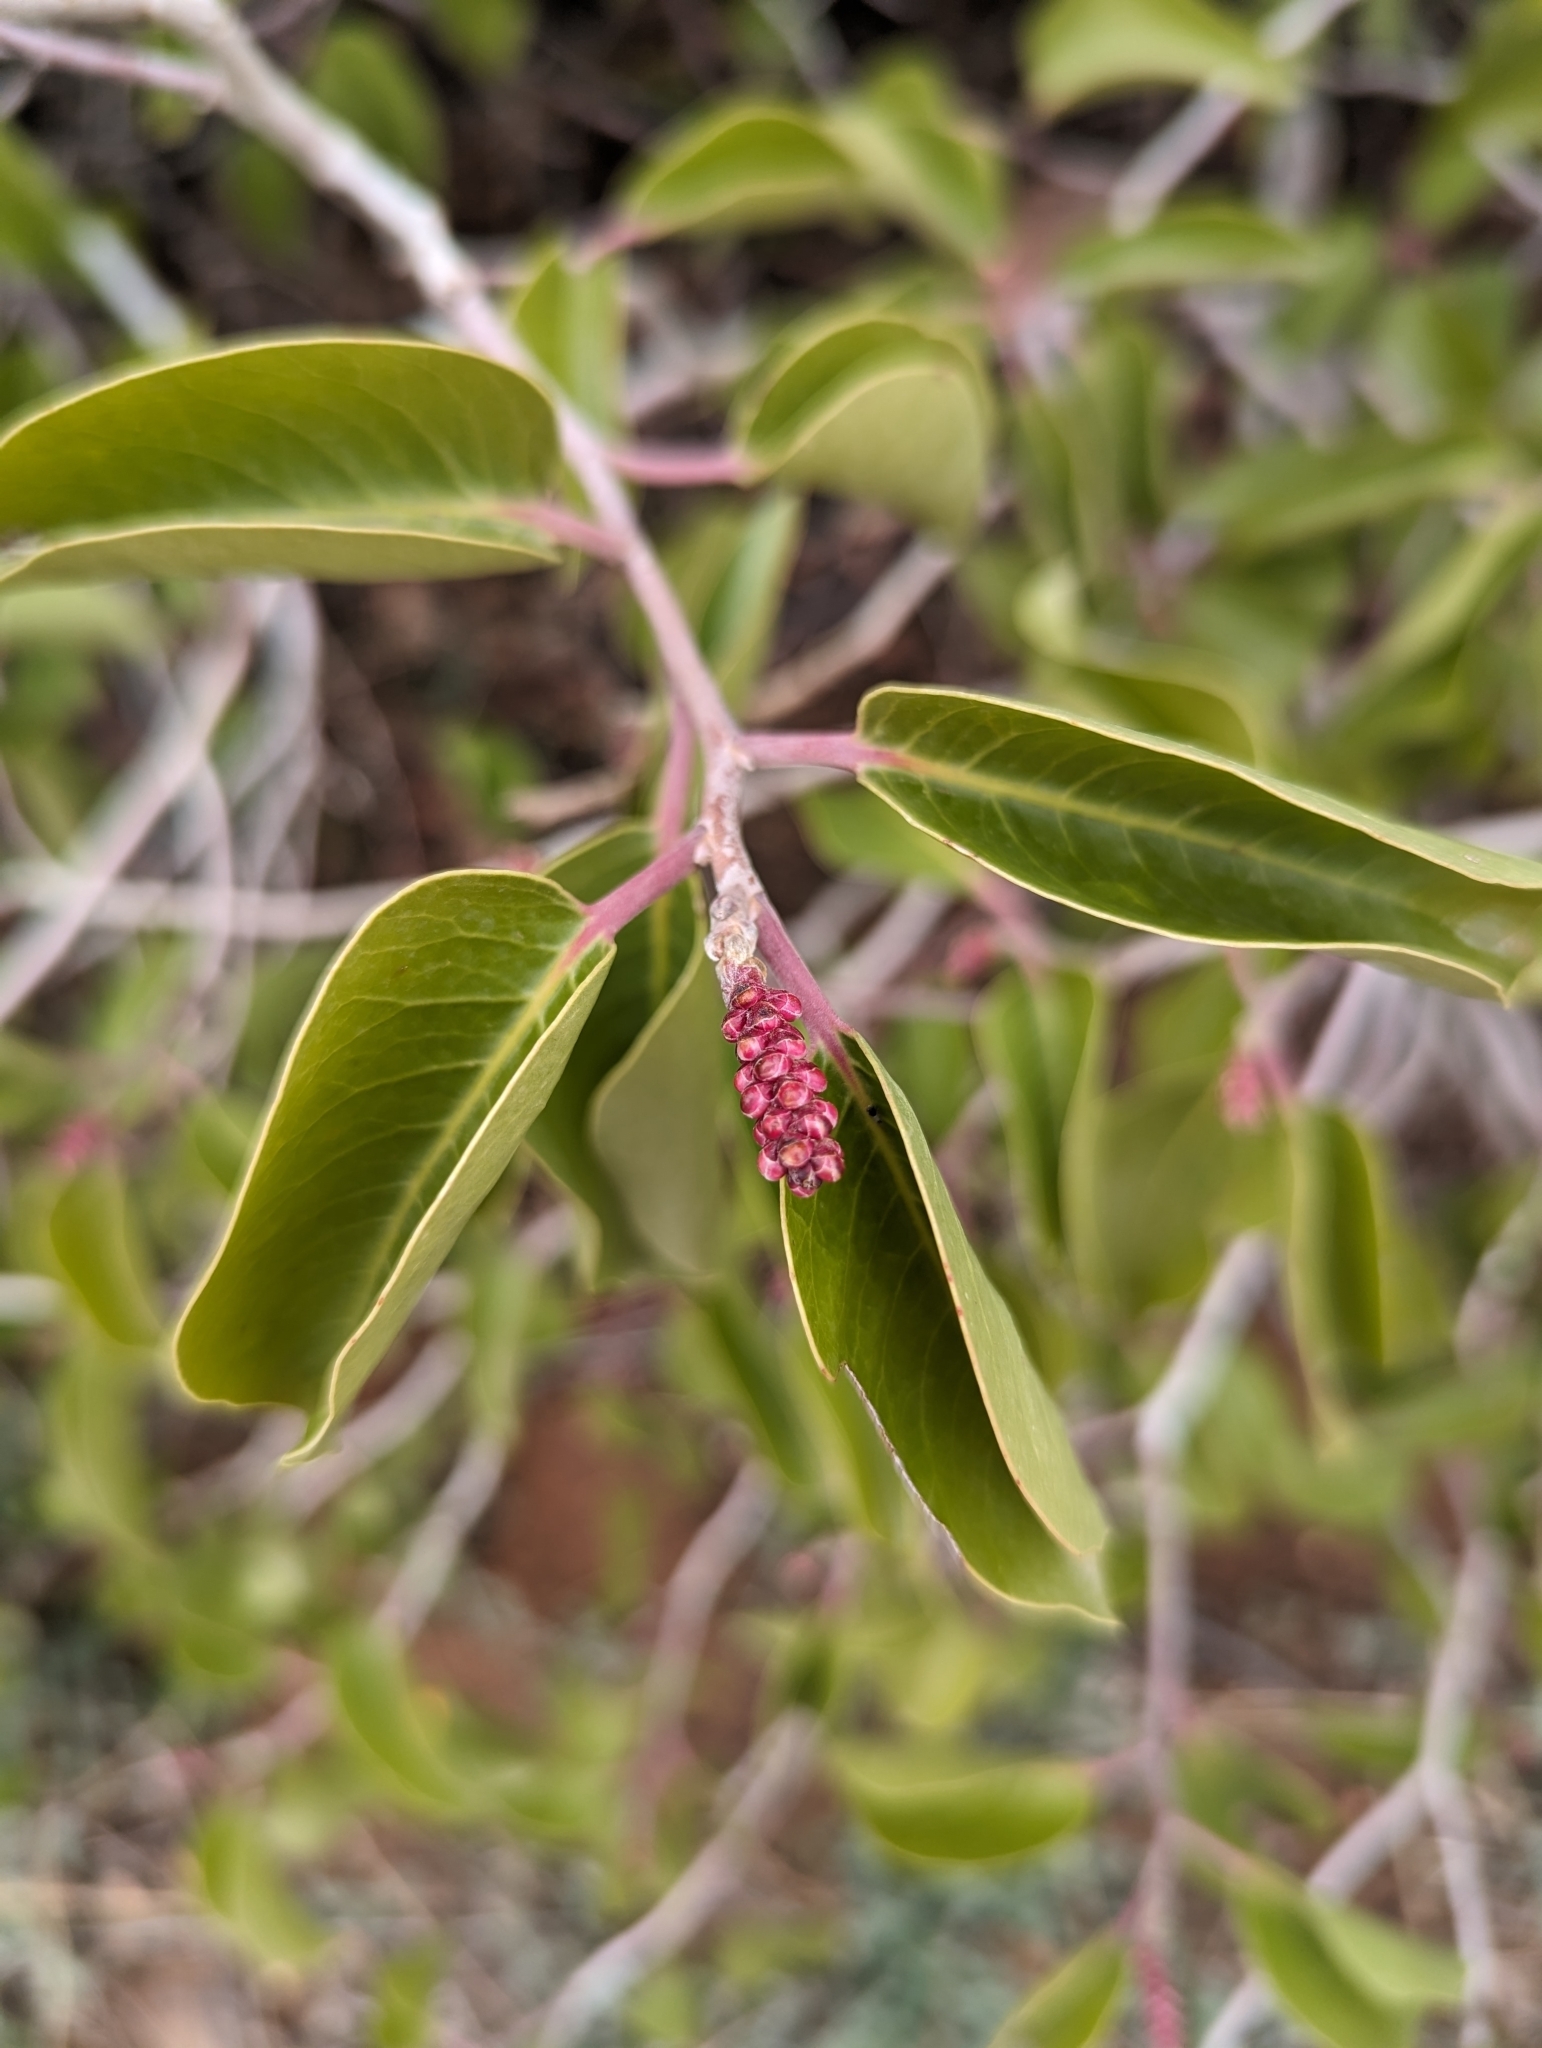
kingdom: Plantae
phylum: Tracheophyta
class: Magnoliopsida
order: Sapindales
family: Anacardiaceae
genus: Rhus
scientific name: Rhus ovata
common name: Sugar sumac
